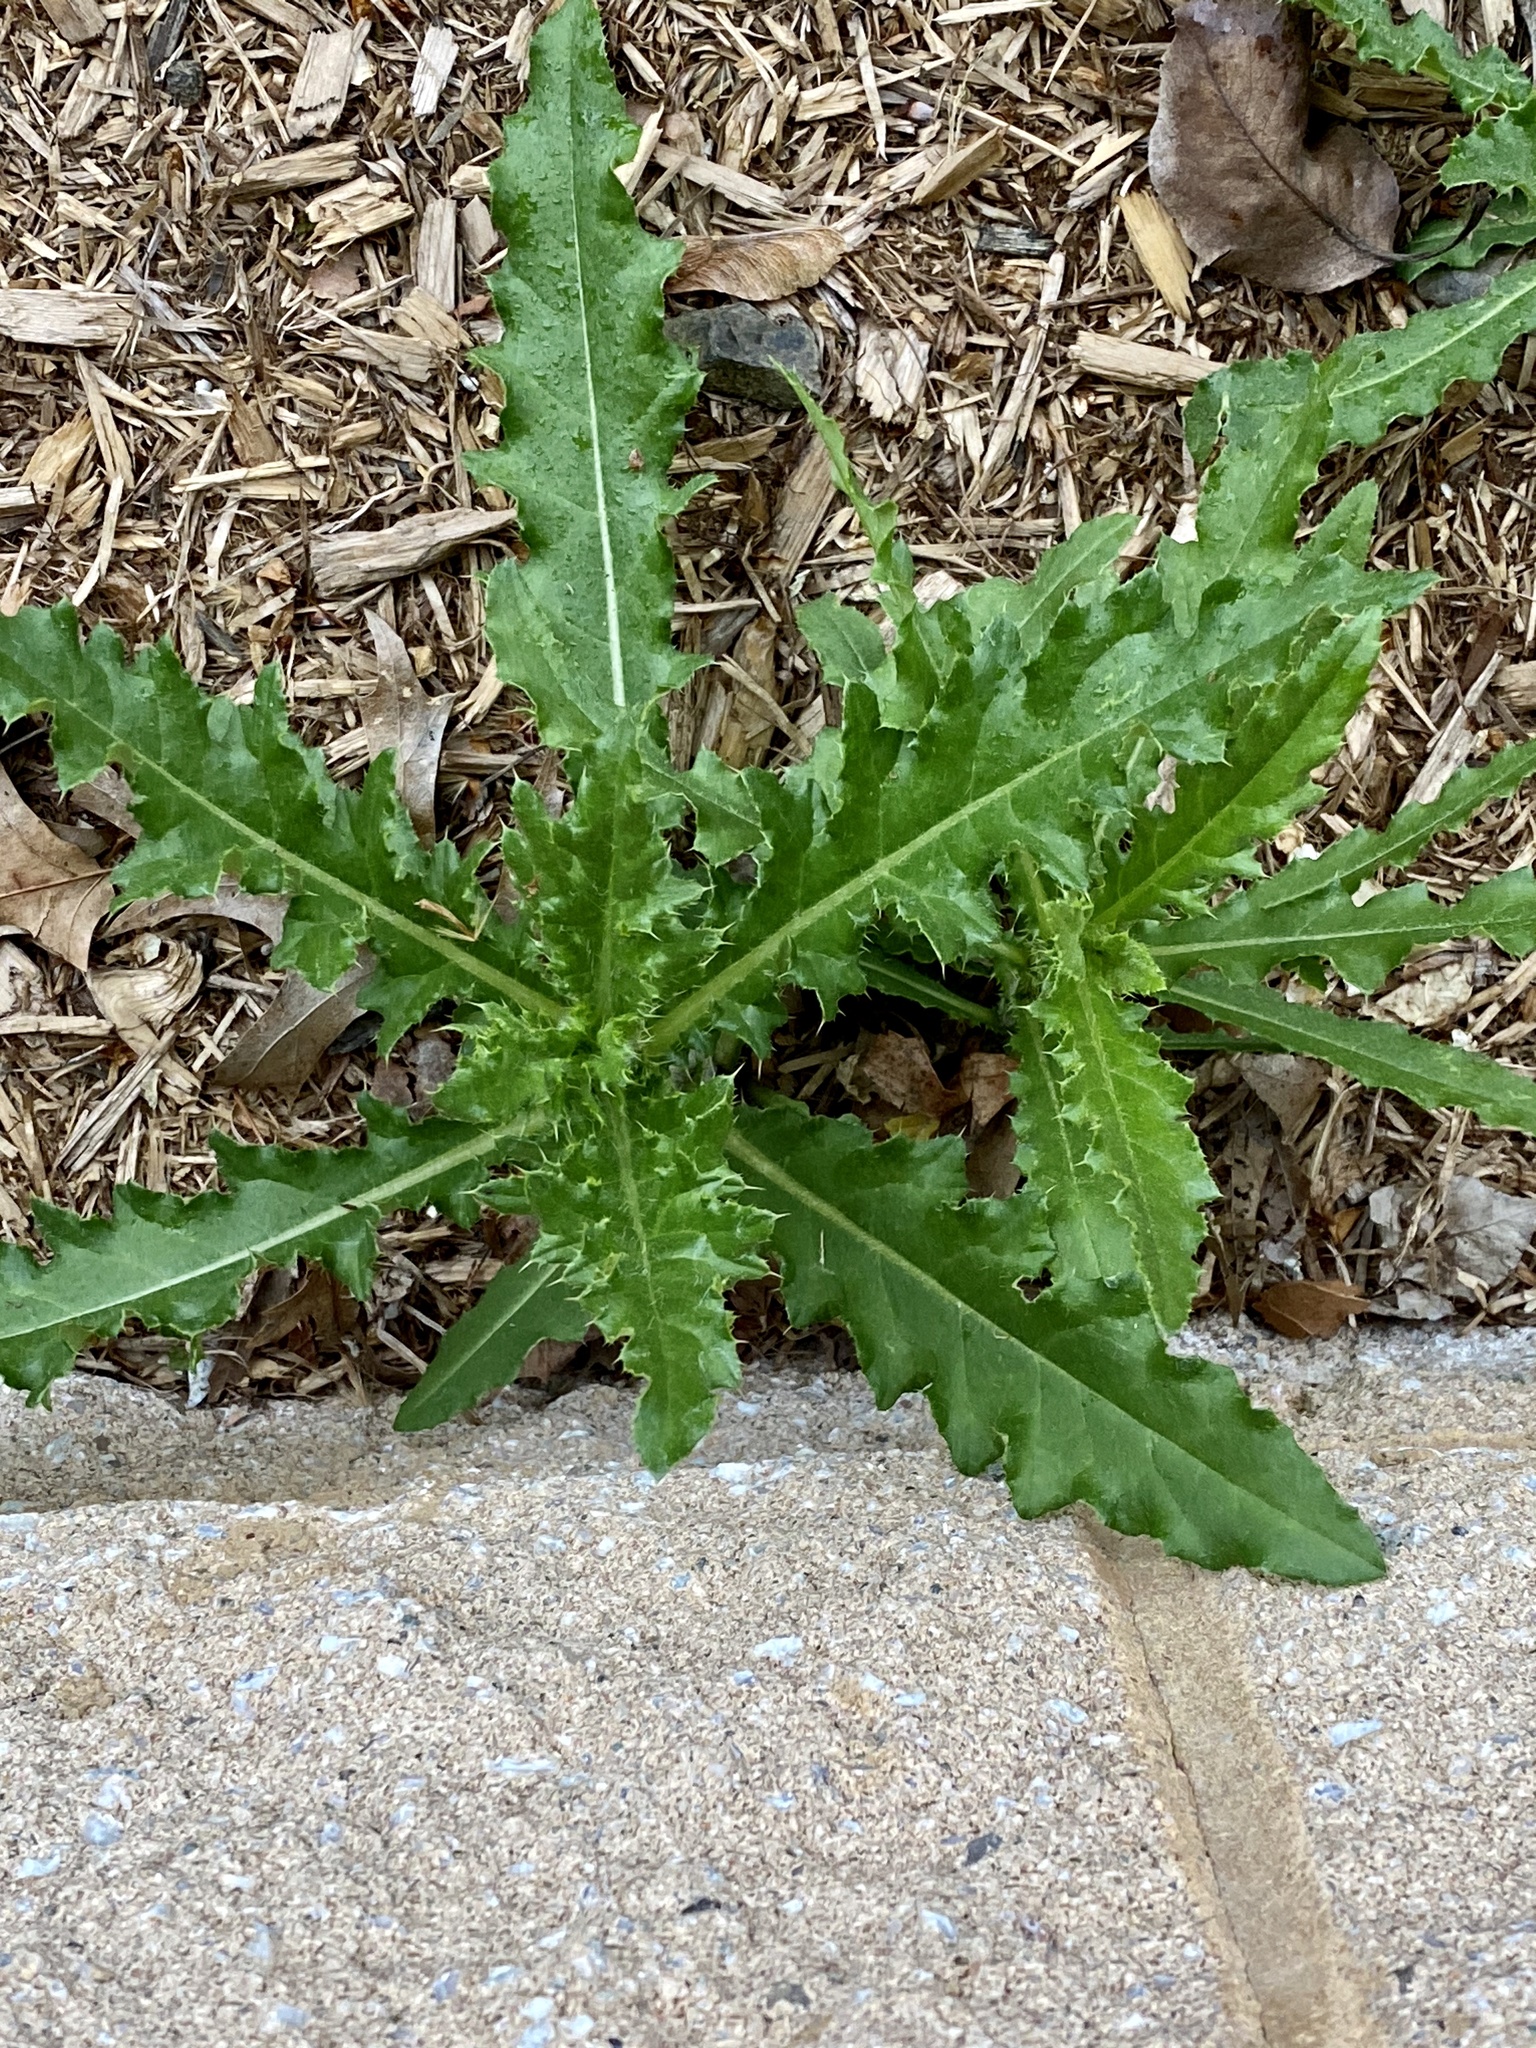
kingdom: Plantae
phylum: Tracheophyta
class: Magnoliopsida
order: Asterales
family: Asteraceae
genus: Cirsium
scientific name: Cirsium arvense
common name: Creeping thistle
